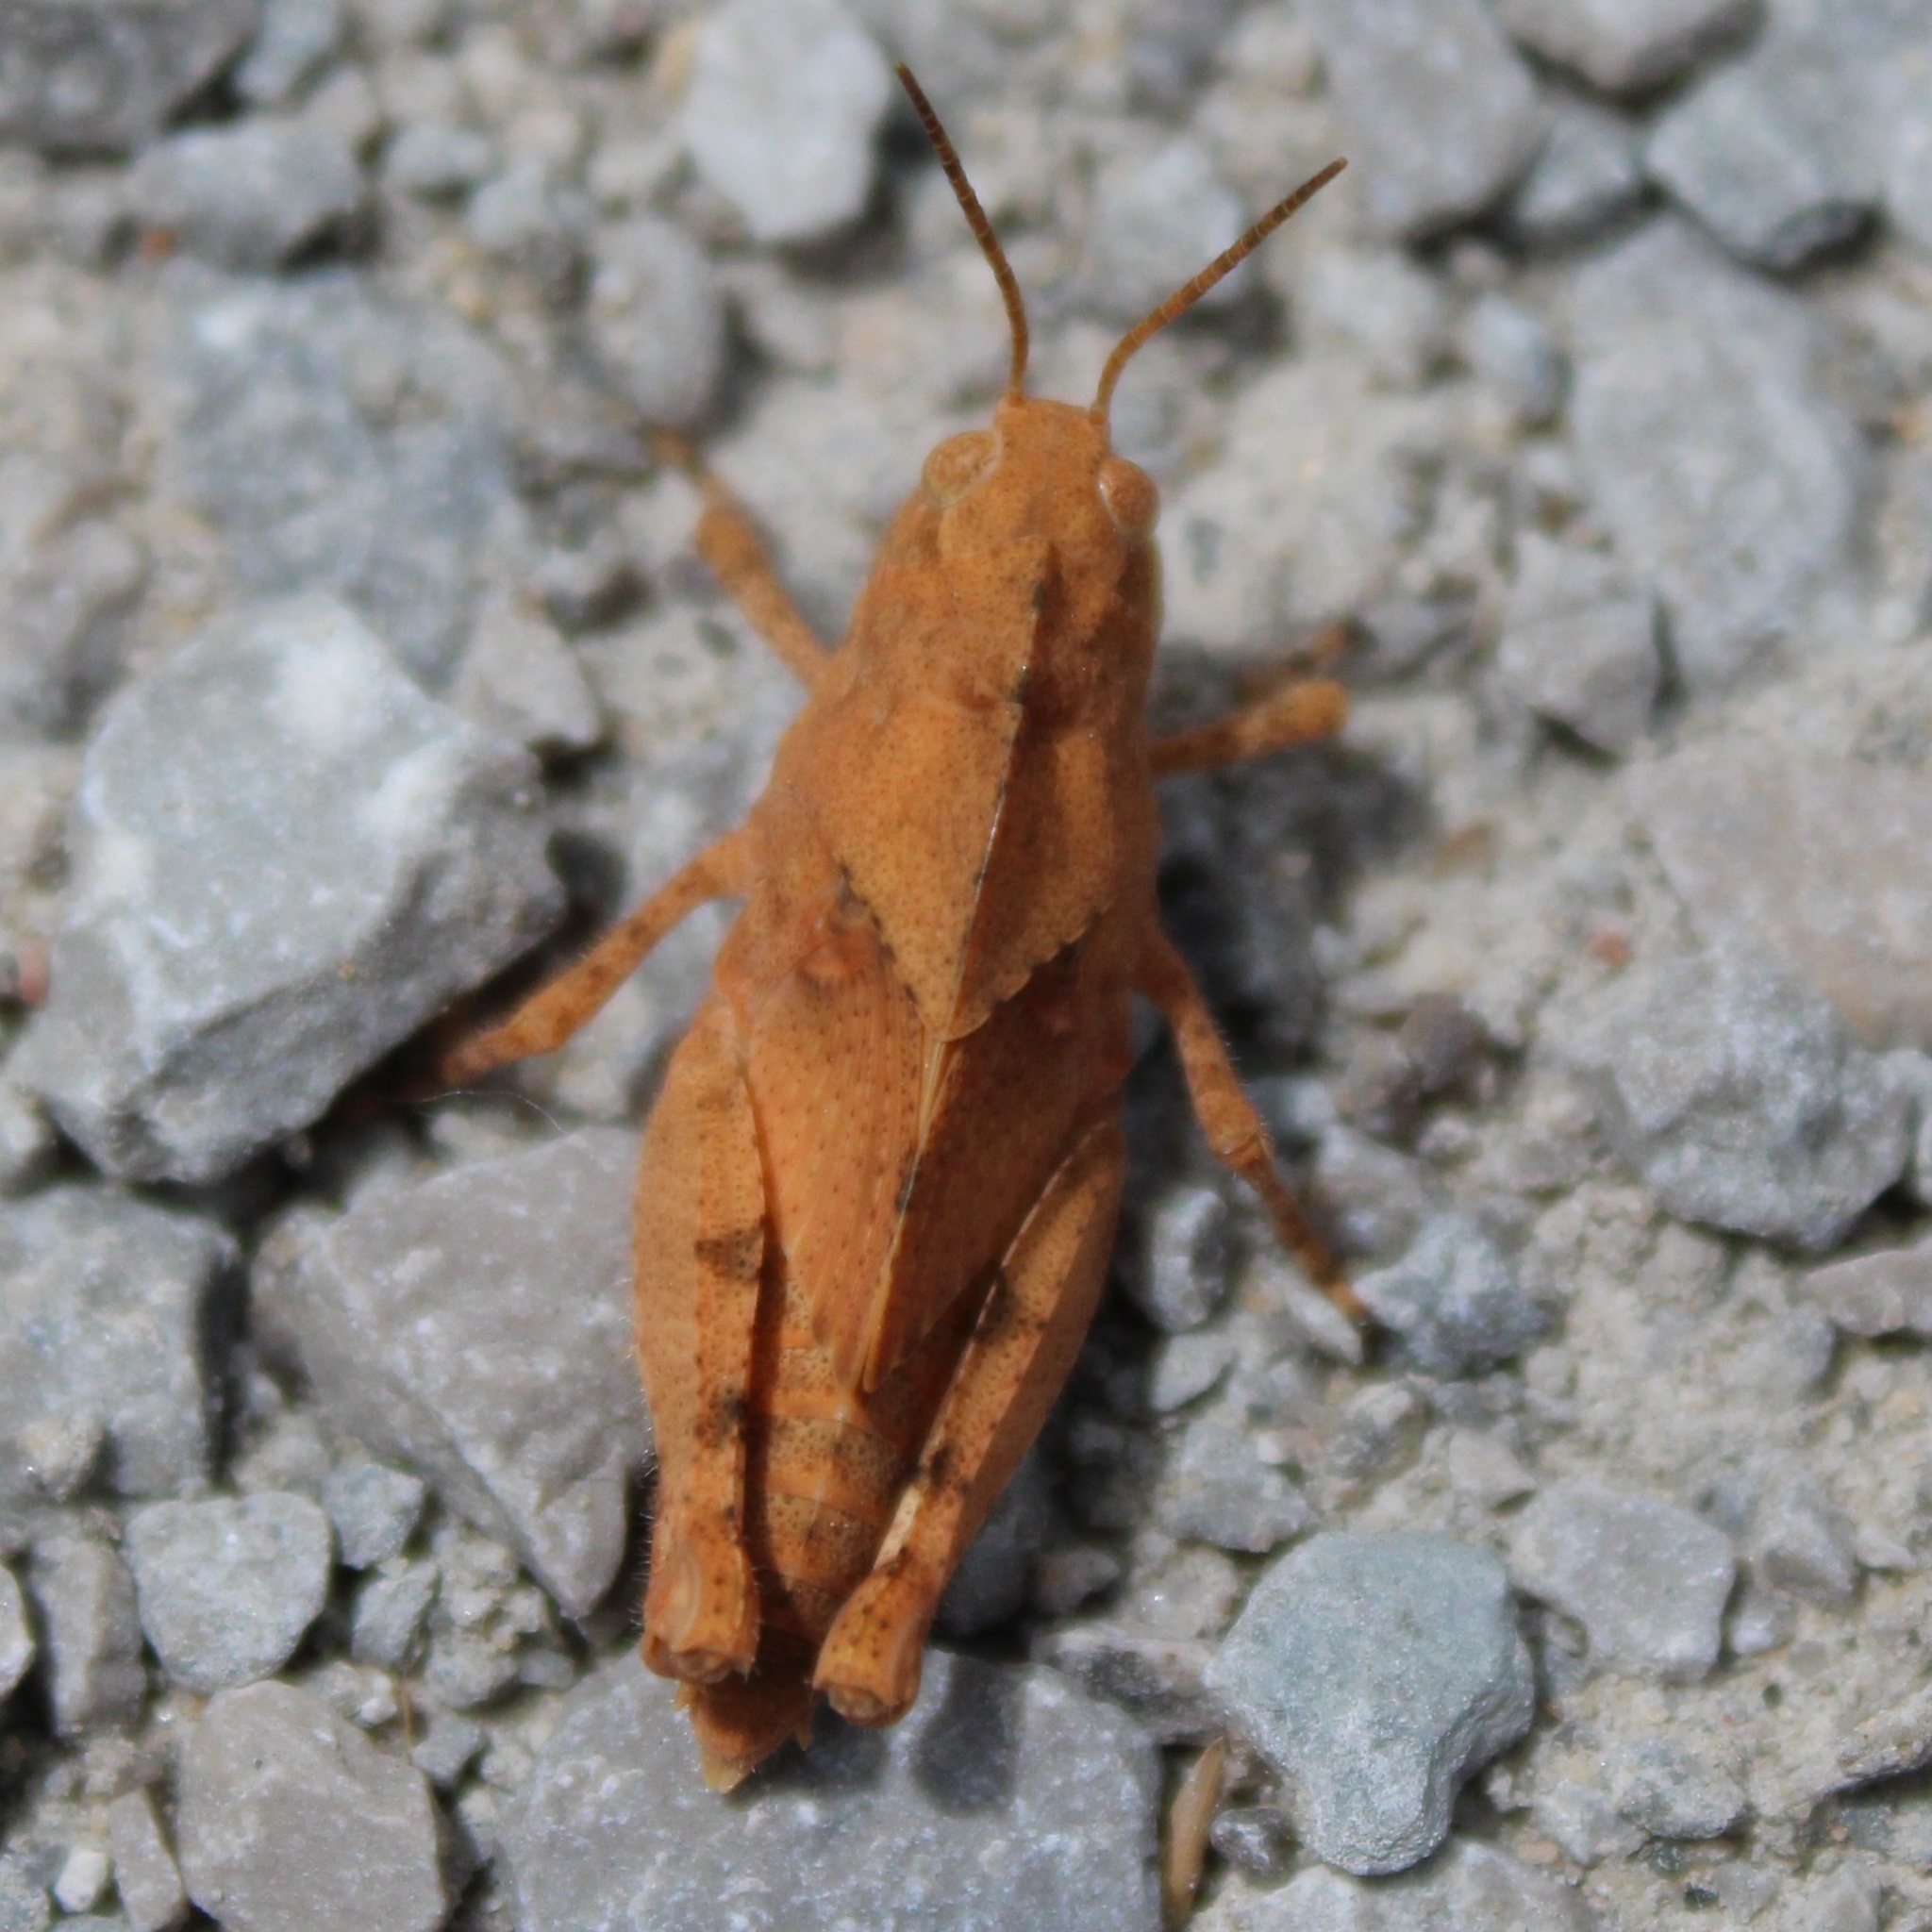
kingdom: Animalia
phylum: Arthropoda
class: Insecta
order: Orthoptera
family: Acrididae
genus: Dissosteira
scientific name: Dissosteira carolina
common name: Carolina grasshopper
